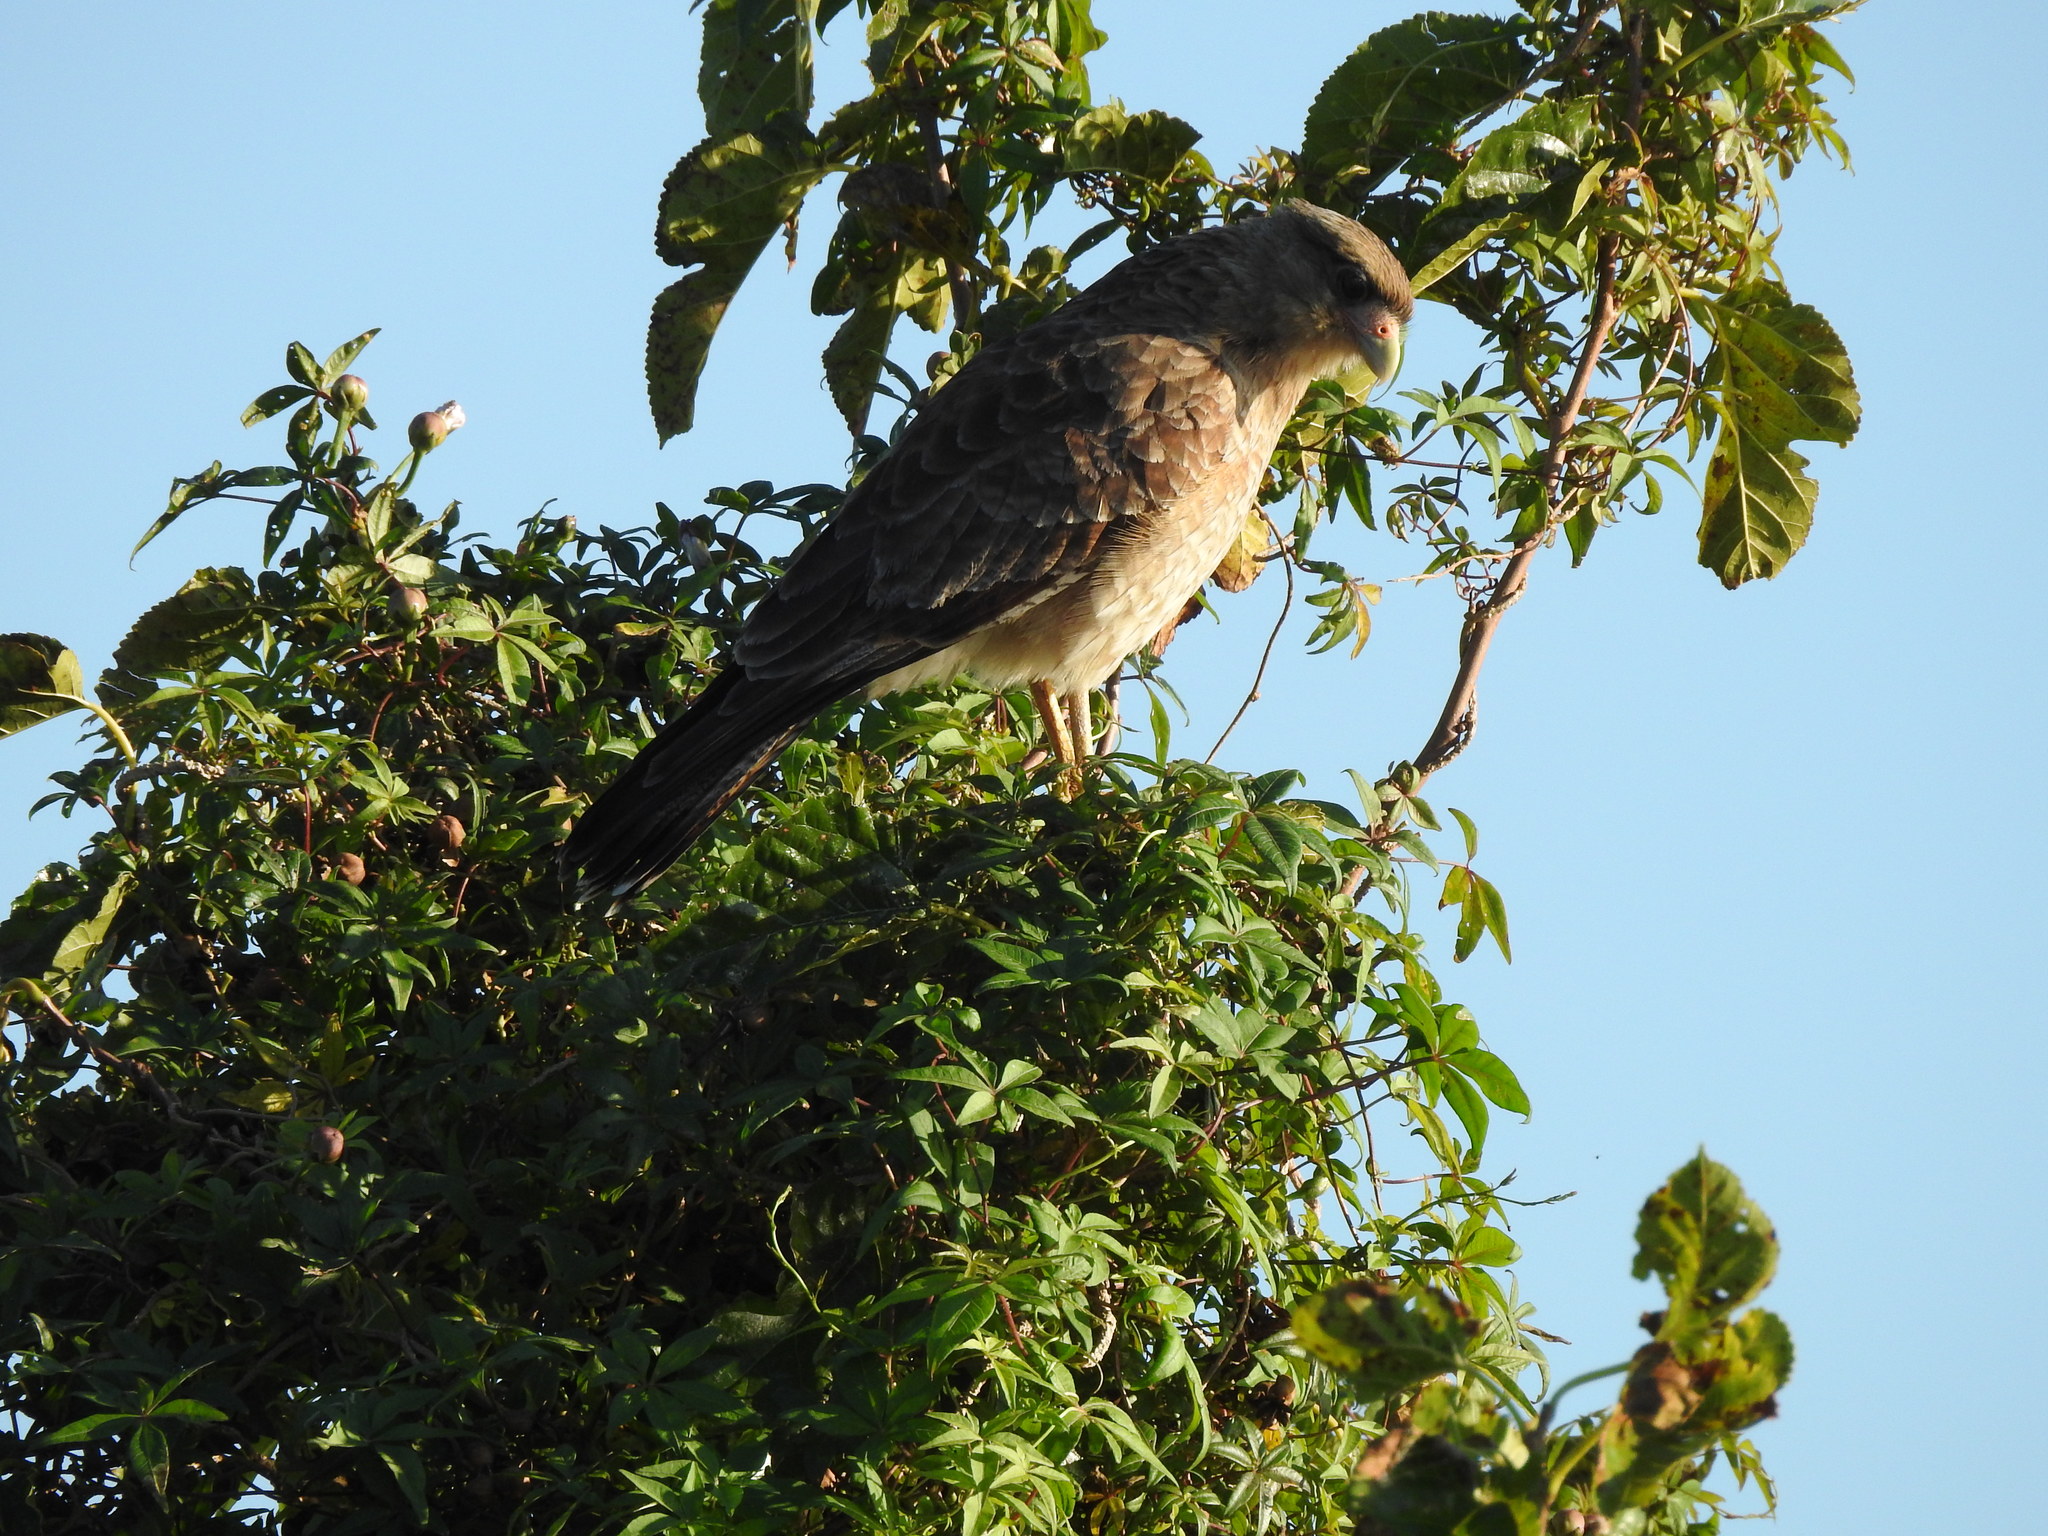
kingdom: Animalia
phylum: Chordata
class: Aves
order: Falconiformes
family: Falconidae
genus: Daptrius
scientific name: Daptrius
